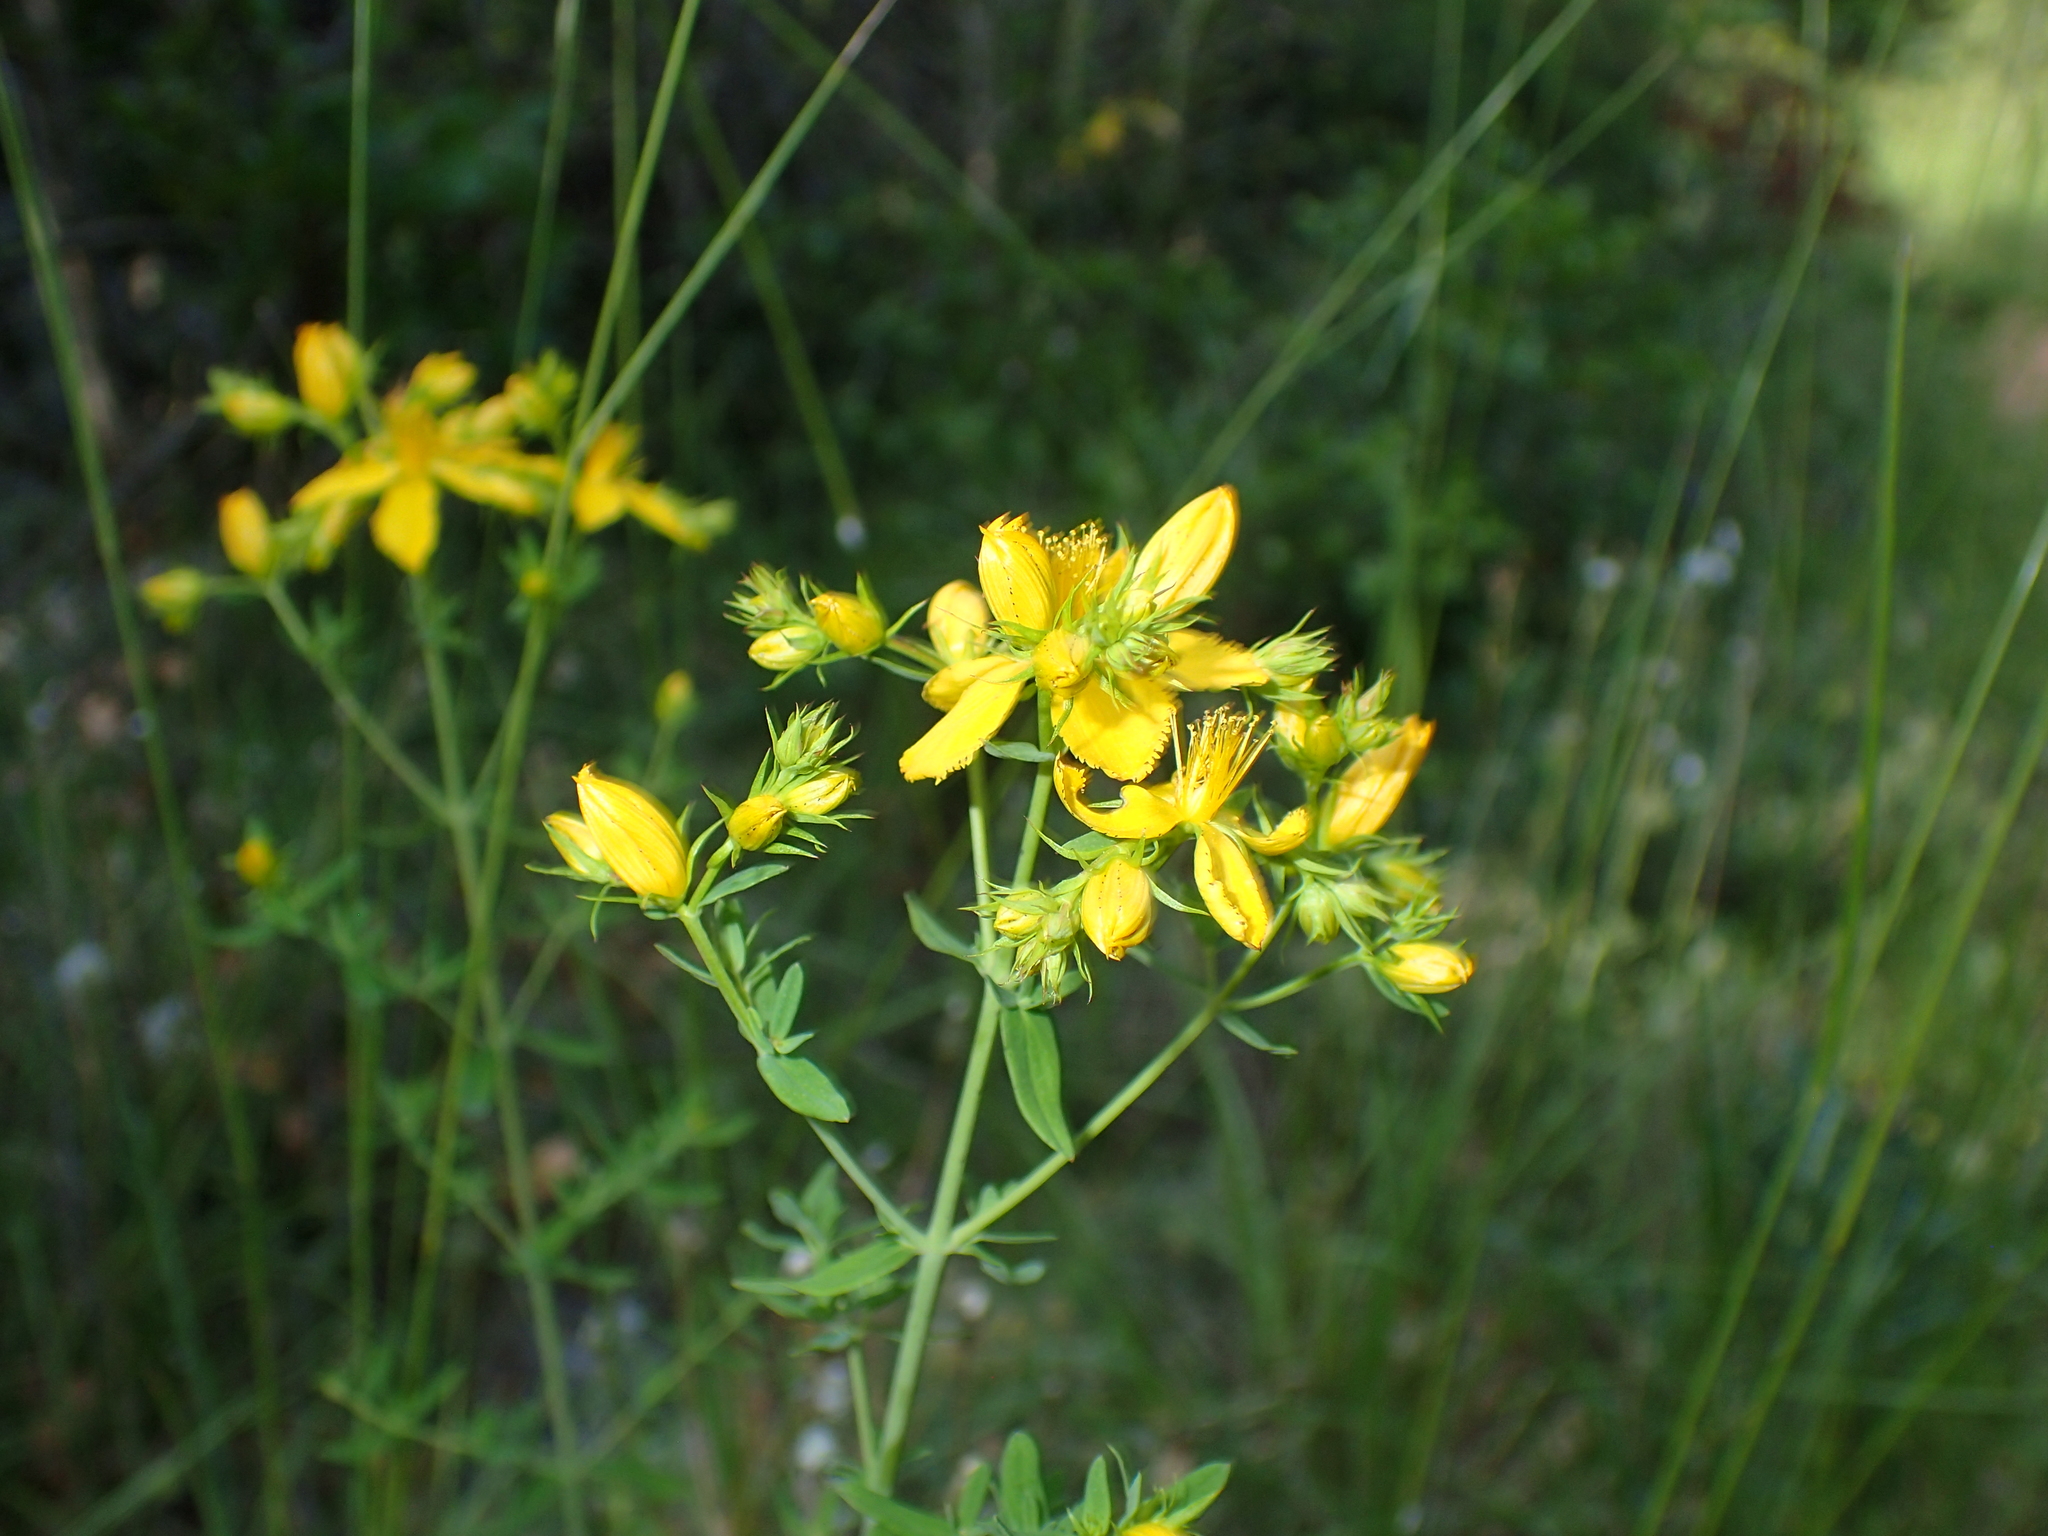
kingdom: Plantae
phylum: Tracheophyta
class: Magnoliopsida
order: Malpighiales
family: Hypericaceae
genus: Hypericum
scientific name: Hypericum perforatum
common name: Common st. johnswort
